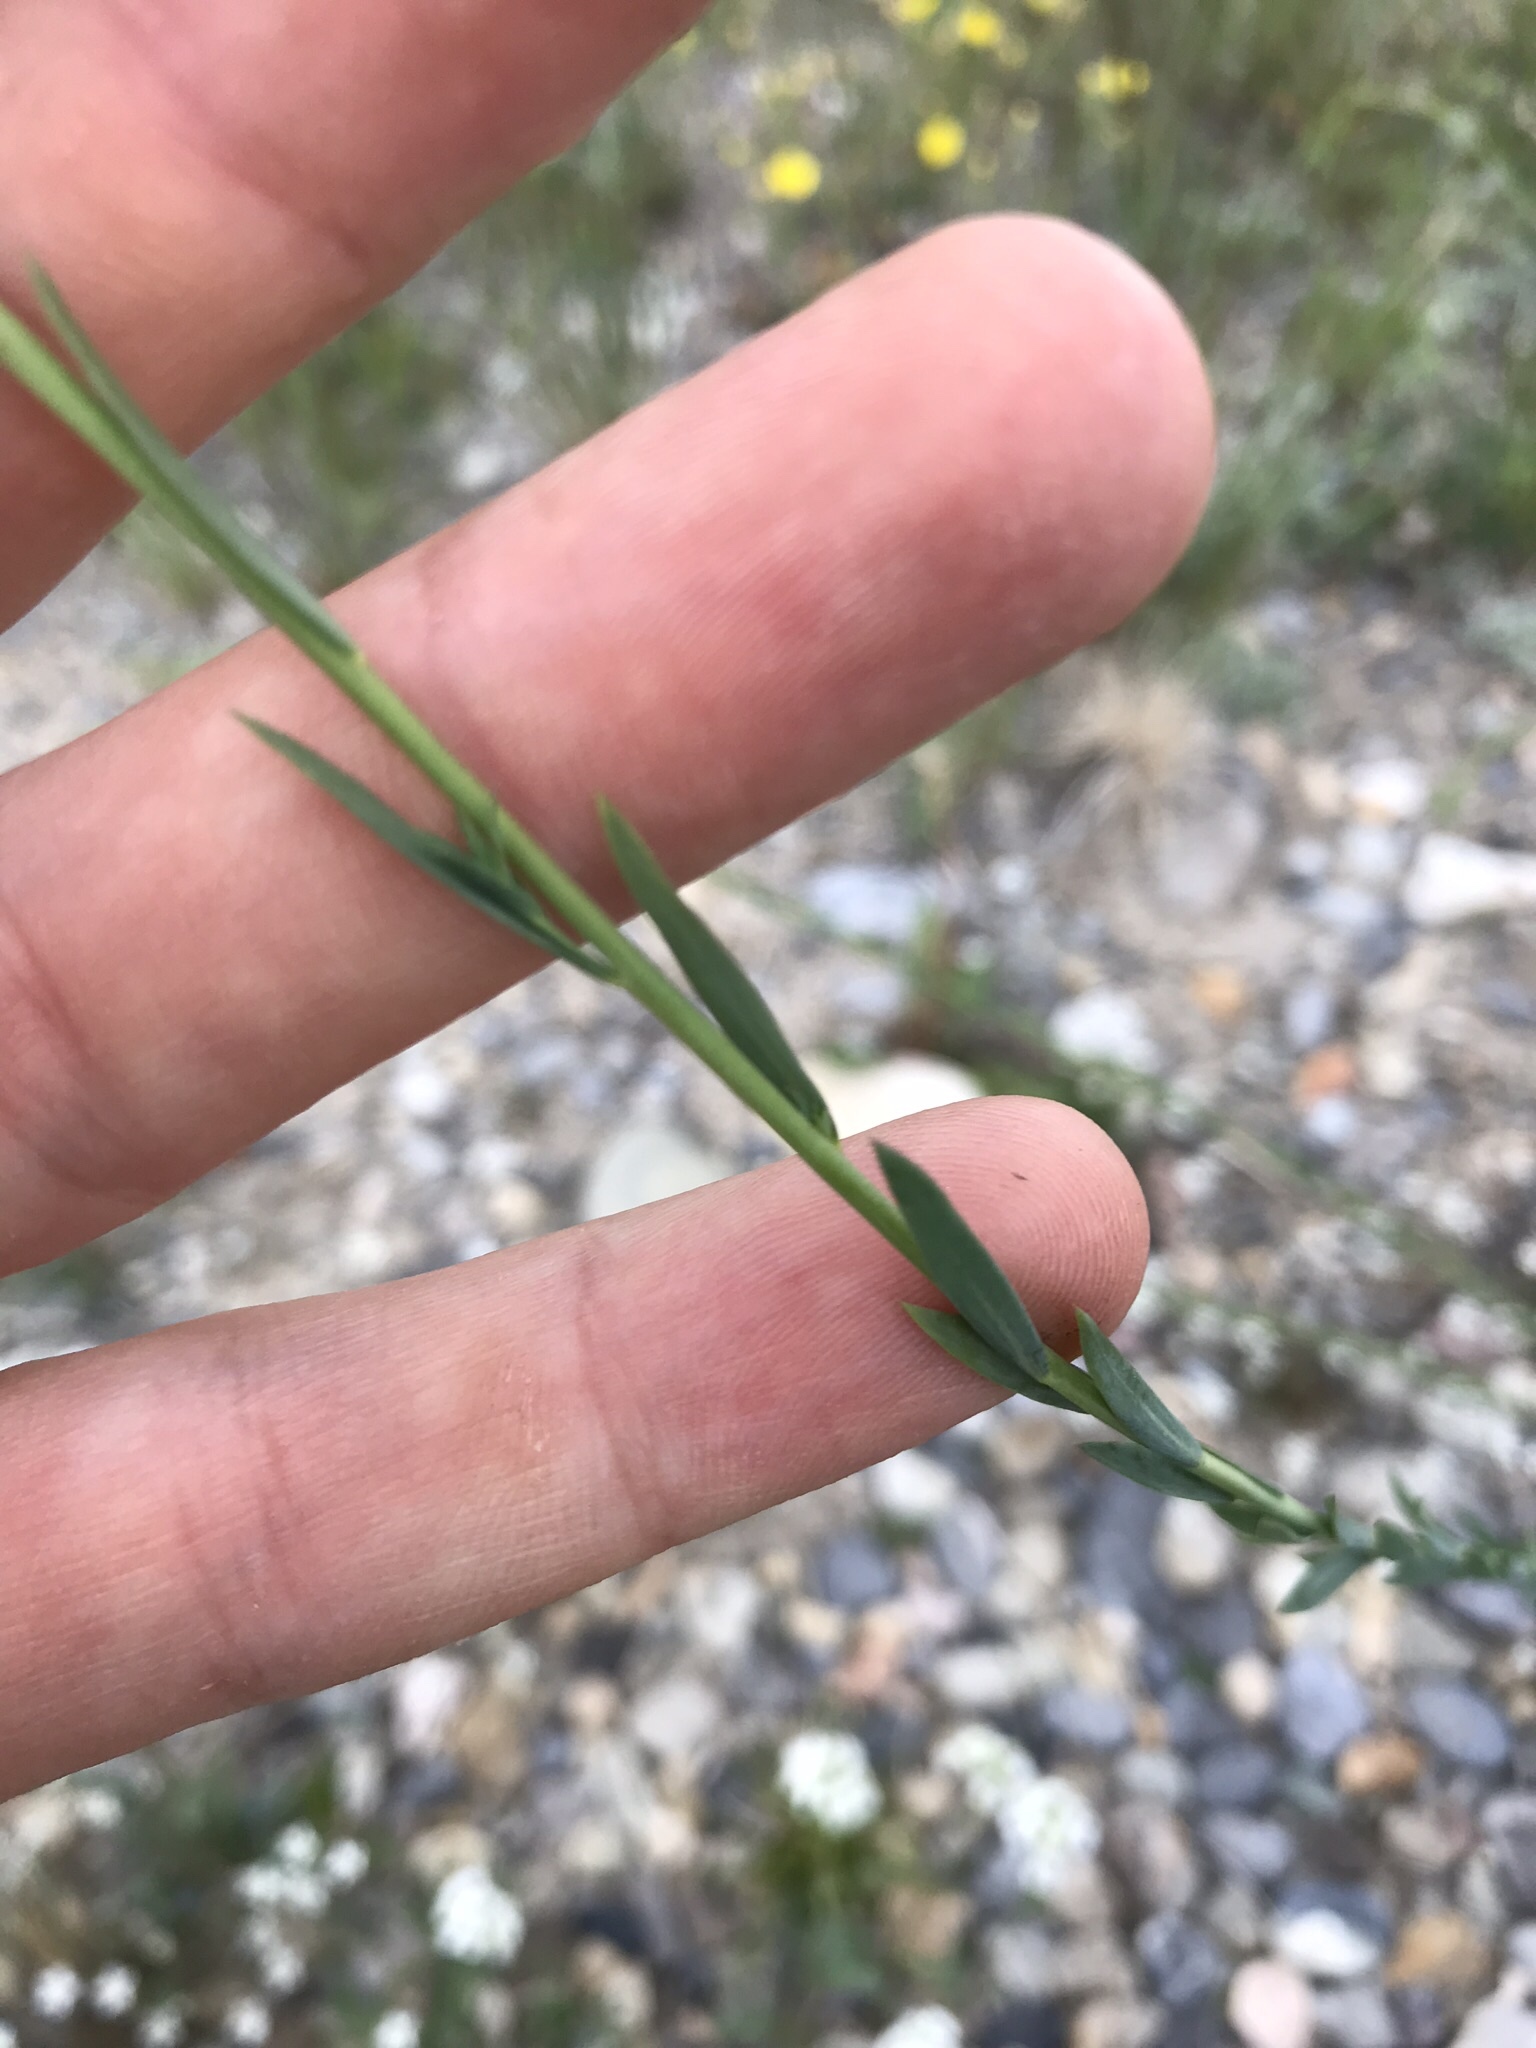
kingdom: Plantae
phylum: Tracheophyta
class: Magnoliopsida
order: Malpighiales
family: Linaceae
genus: Linum
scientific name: Linum lewisii
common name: Prairie flax
